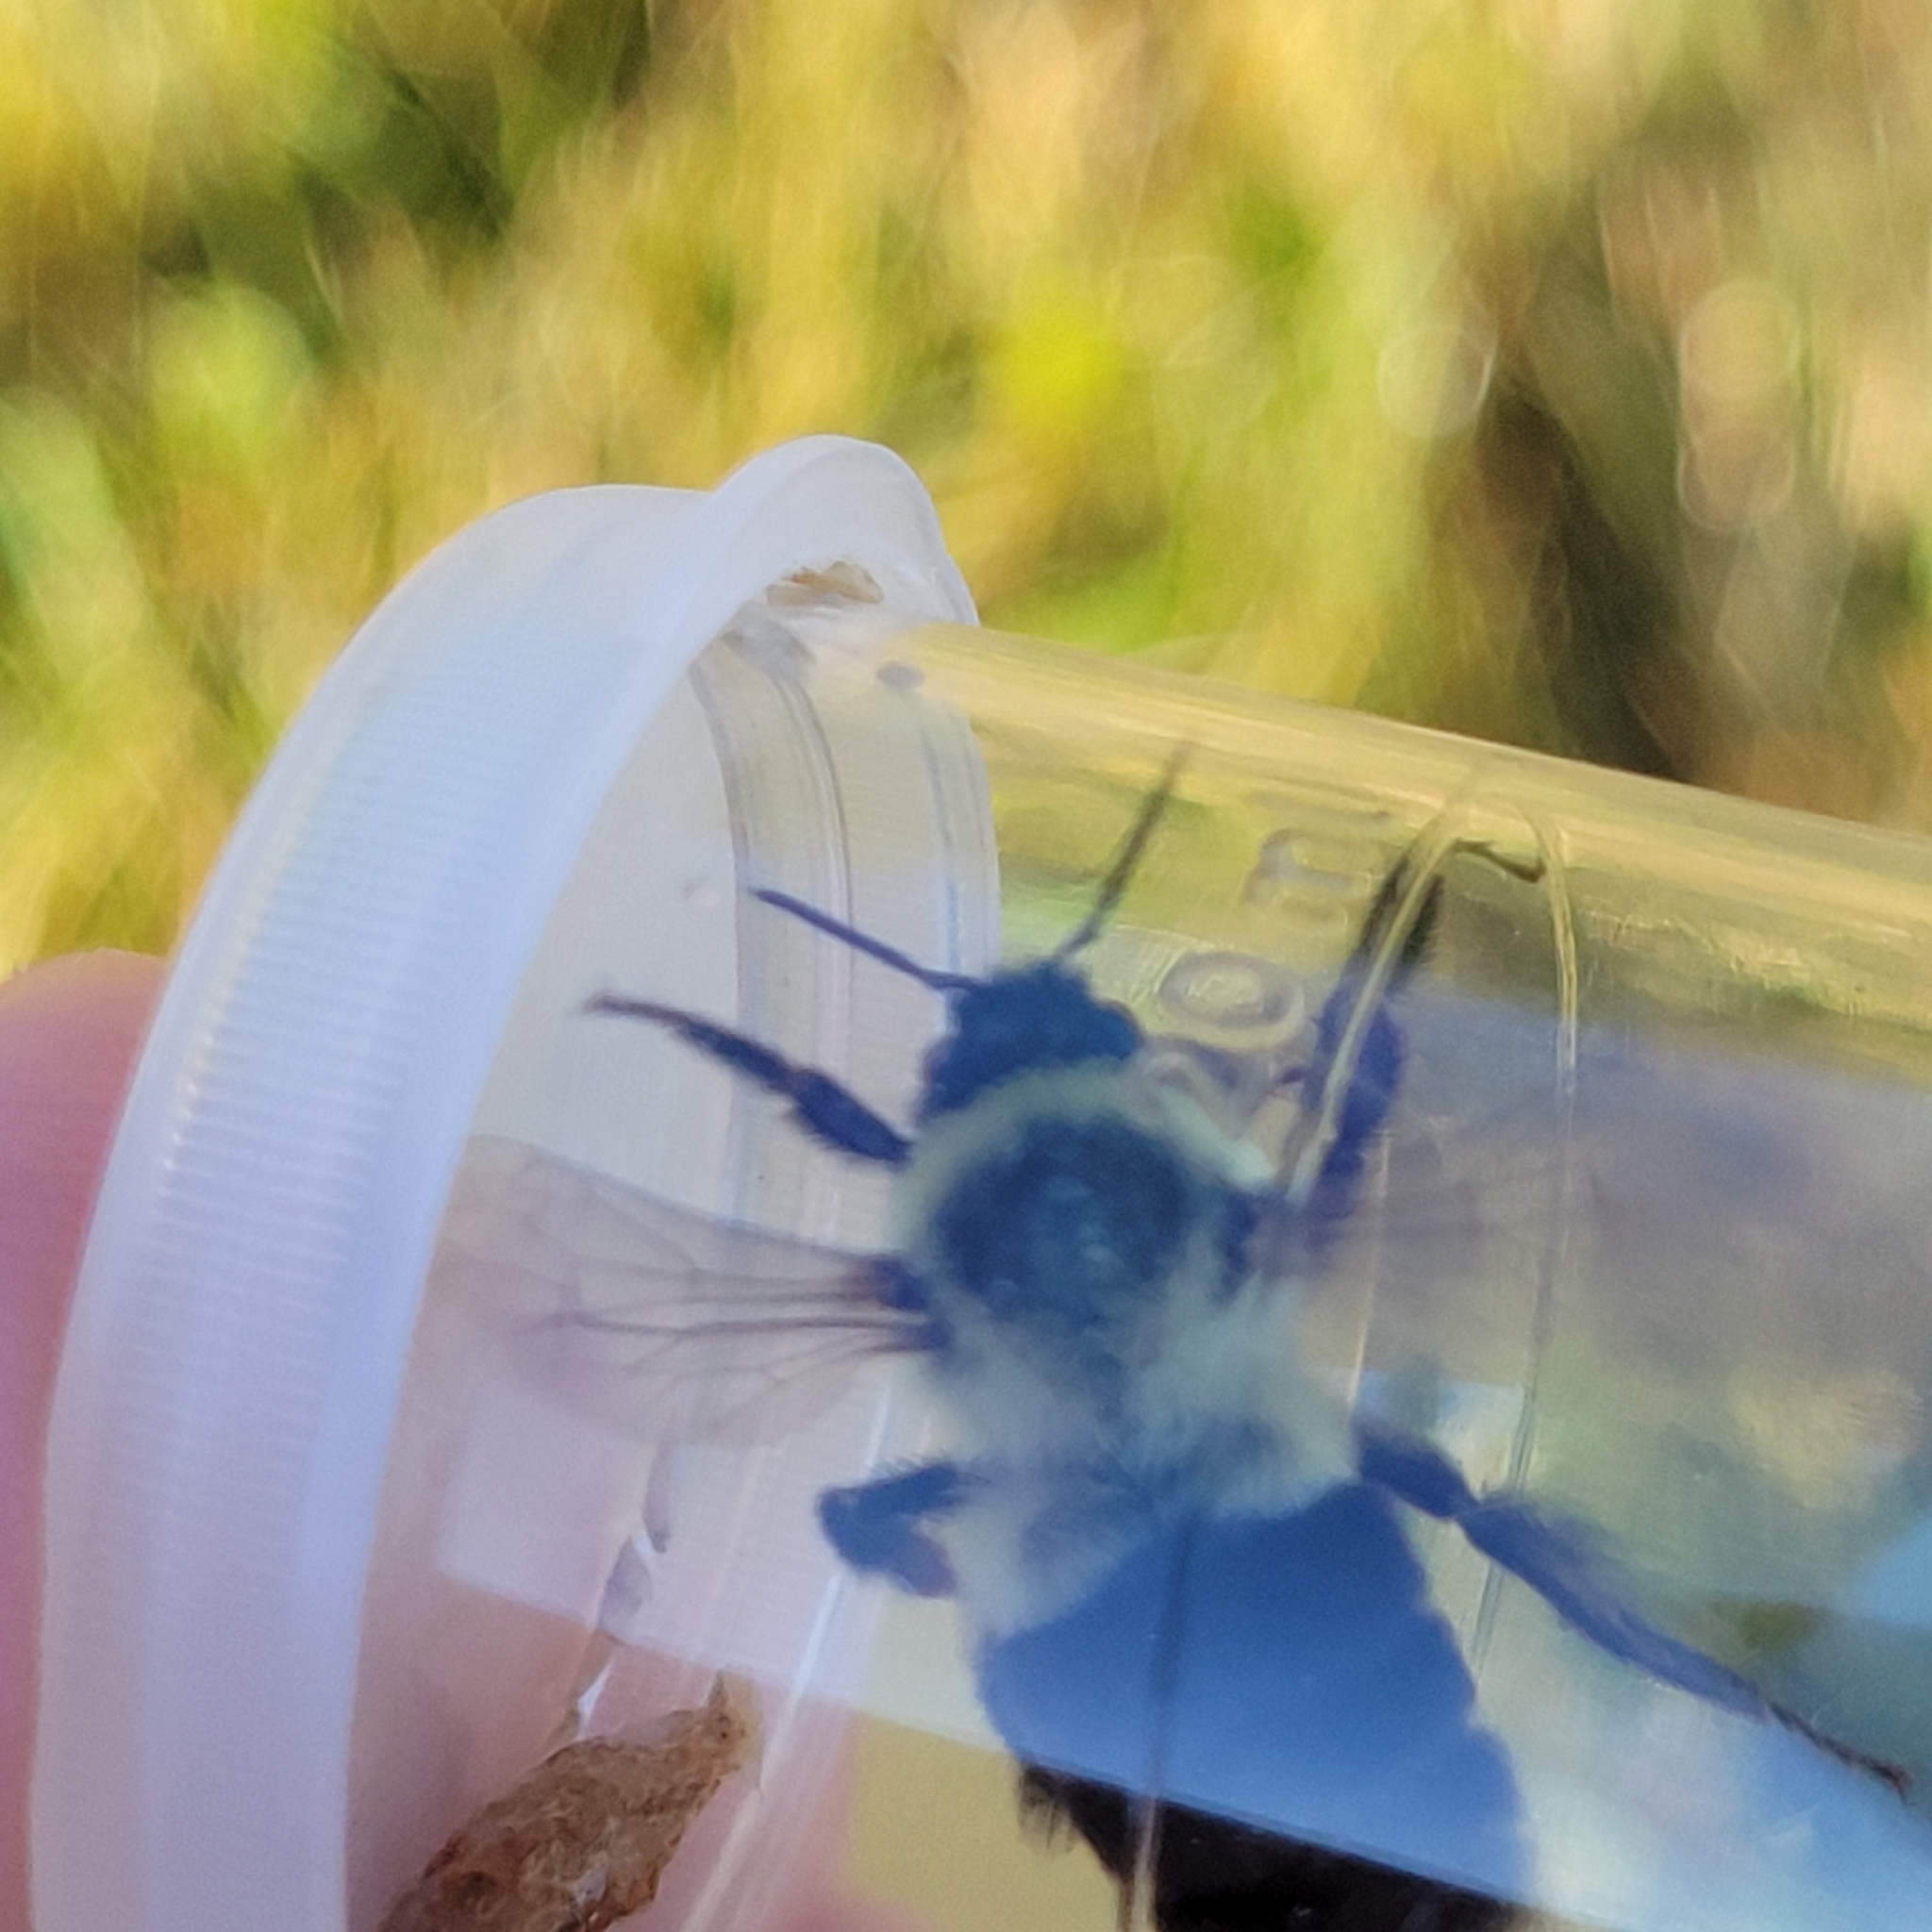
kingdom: Animalia
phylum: Arthropoda
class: Insecta
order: Hymenoptera
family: Apidae
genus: Bombus
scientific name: Bombus impatiens
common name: Common eastern bumble bee
